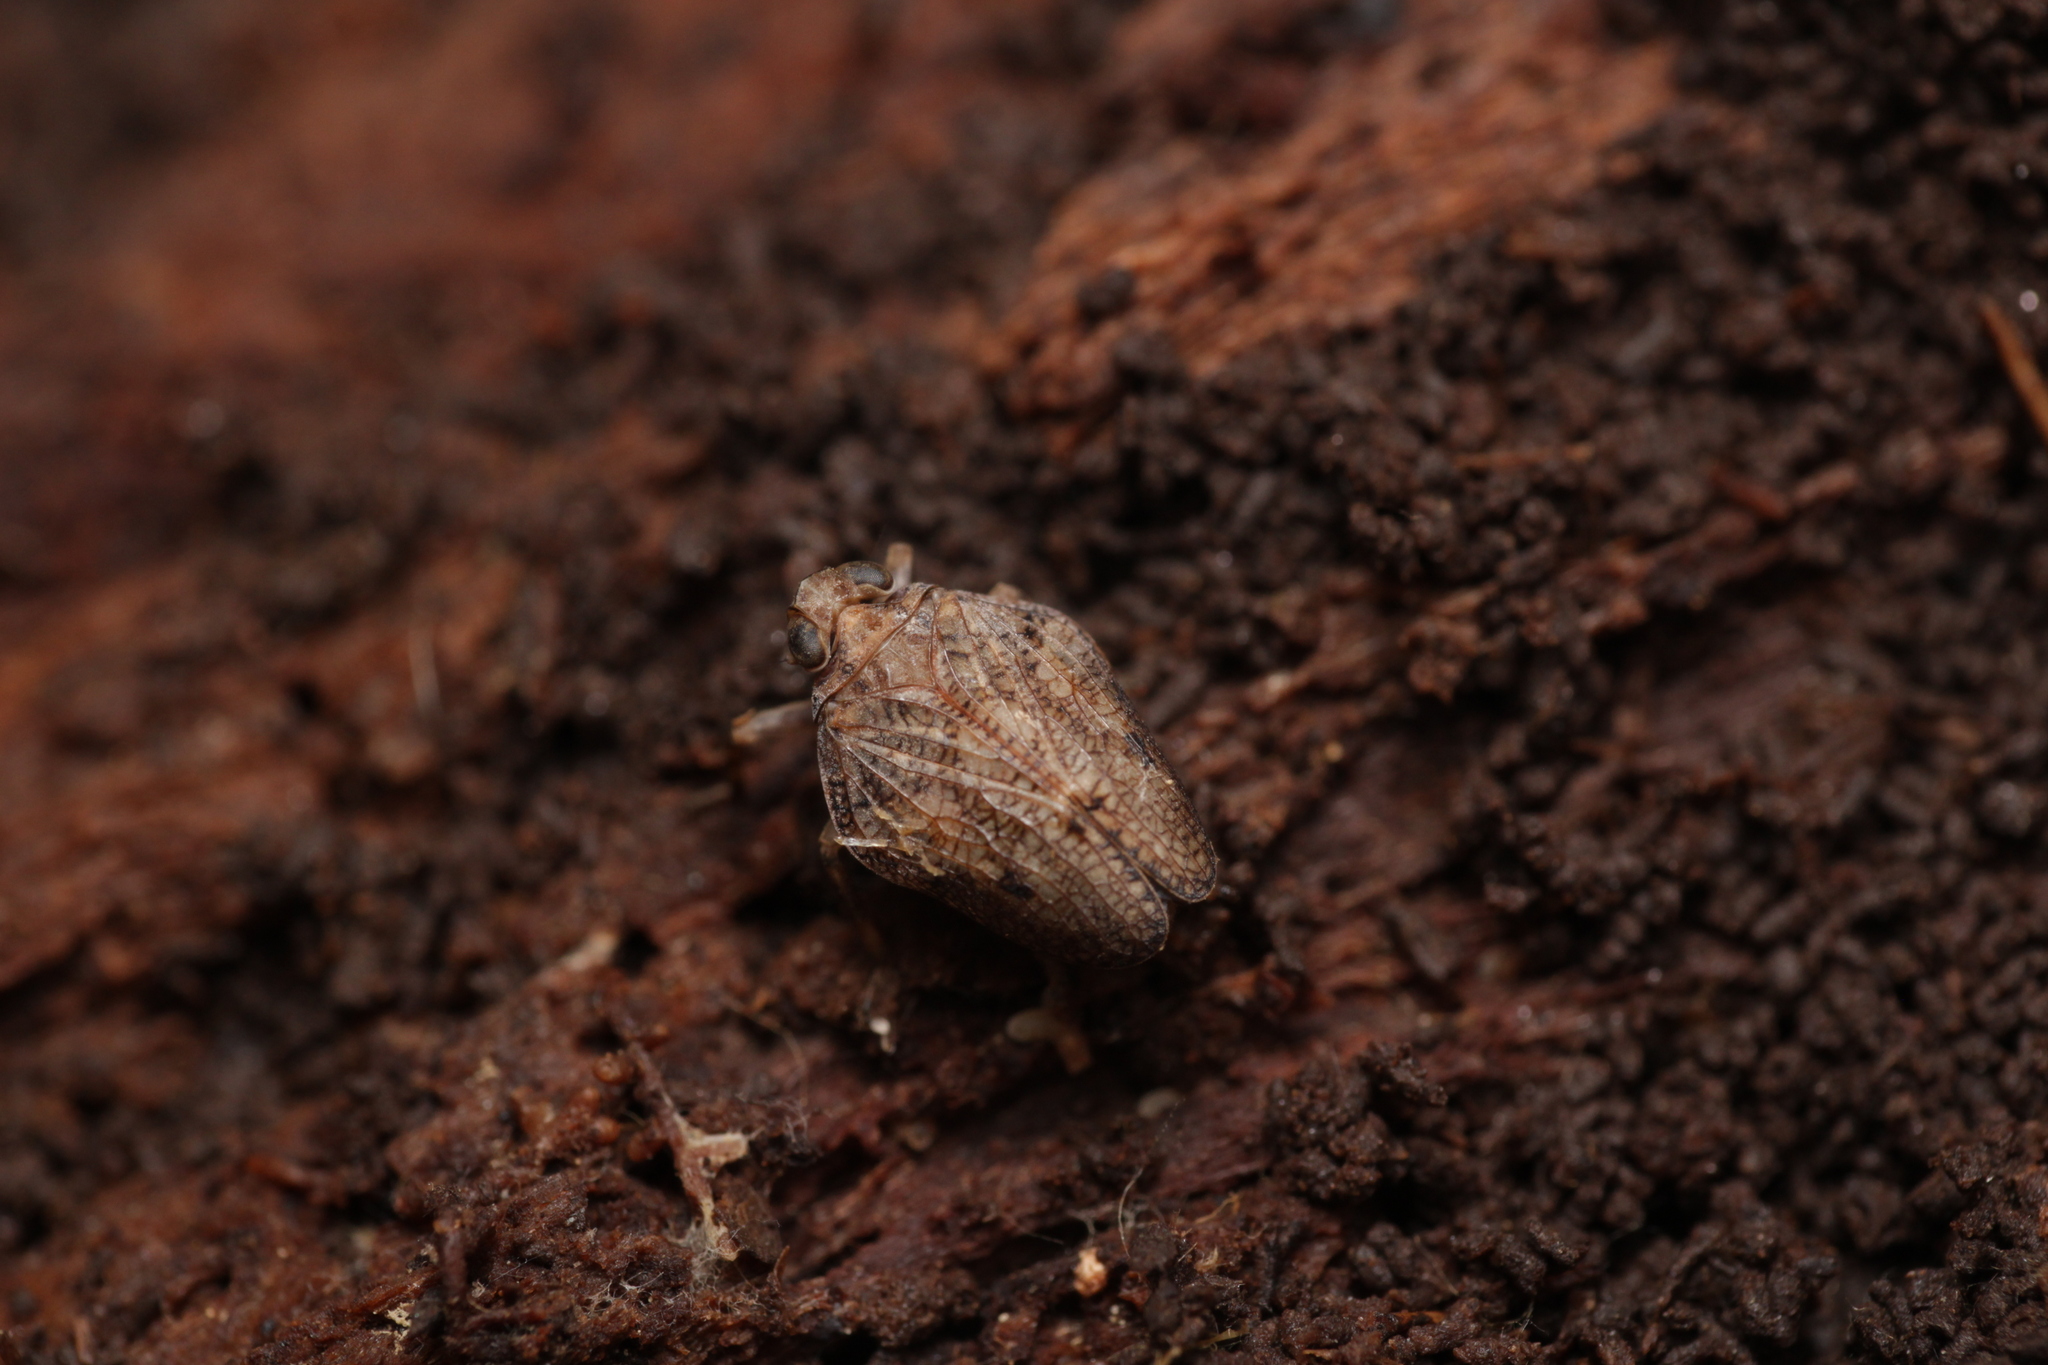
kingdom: Animalia
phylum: Arthropoda
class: Insecta
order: Hemiptera
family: Issidae
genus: Issus
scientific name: Issus coleoptratus
